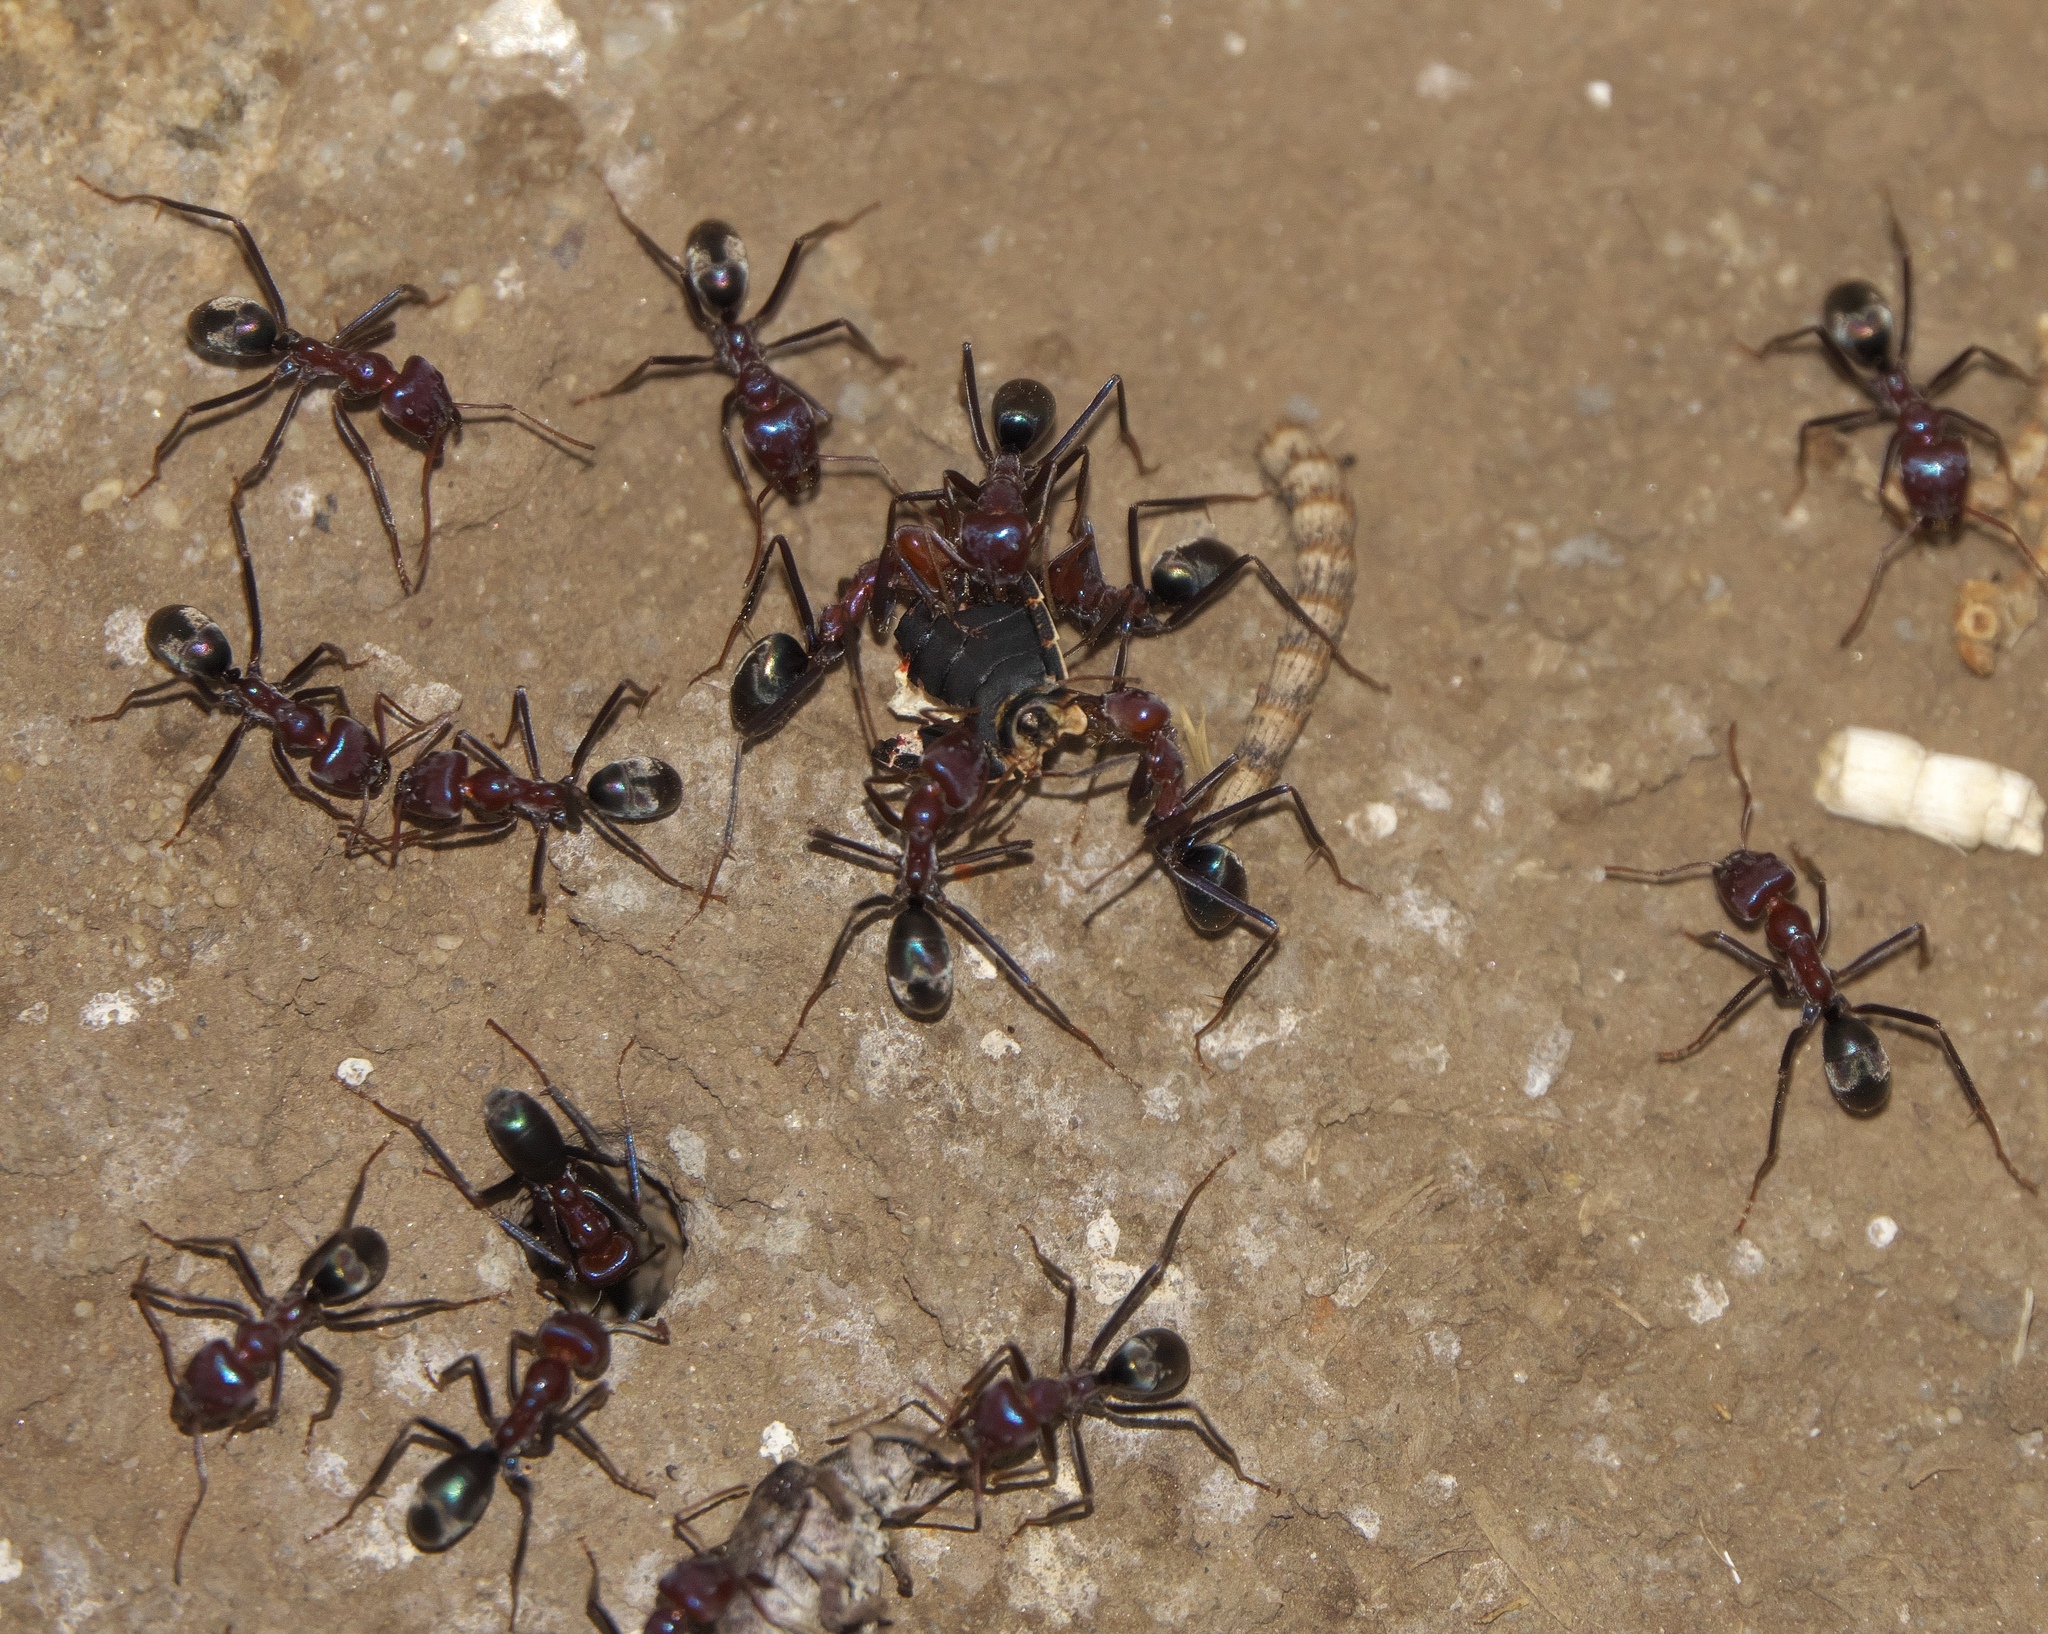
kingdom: Animalia
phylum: Arthropoda
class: Insecta
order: Hymenoptera
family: Formicidae
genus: Iridomyrmex
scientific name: Iridomyrmex purpureus
